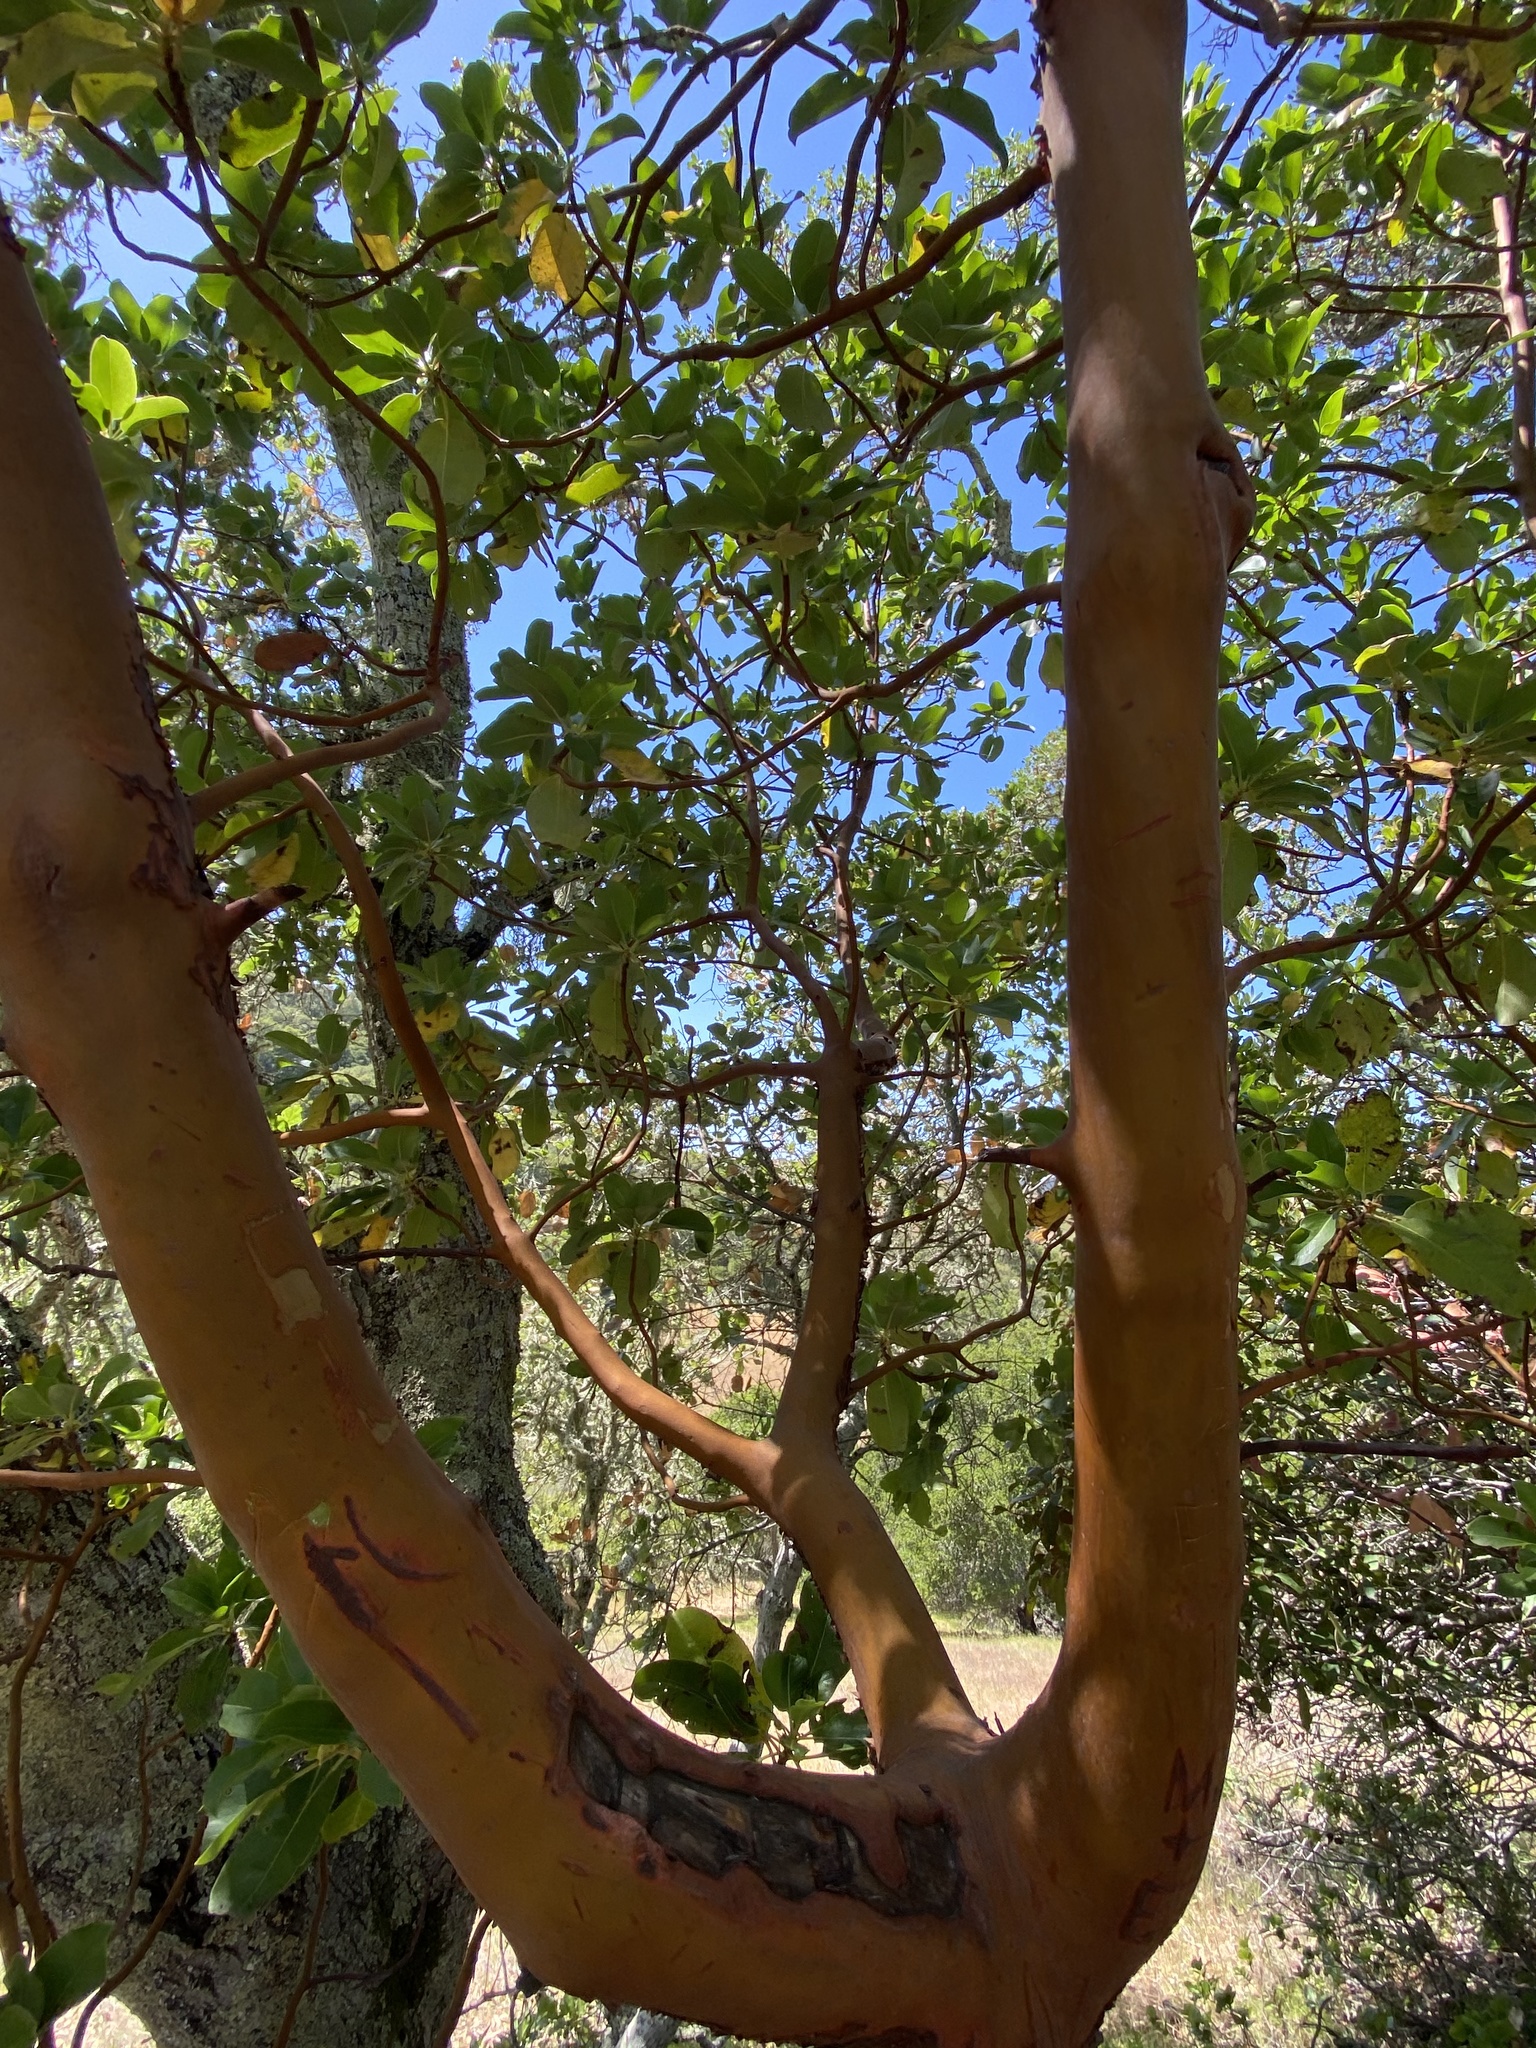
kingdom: Plantae
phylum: Tracheophyta
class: Magnoliopsida
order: Ericales
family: Ericaceae
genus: Arbutus
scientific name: Arbutus menziesii
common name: Pacific madrone
